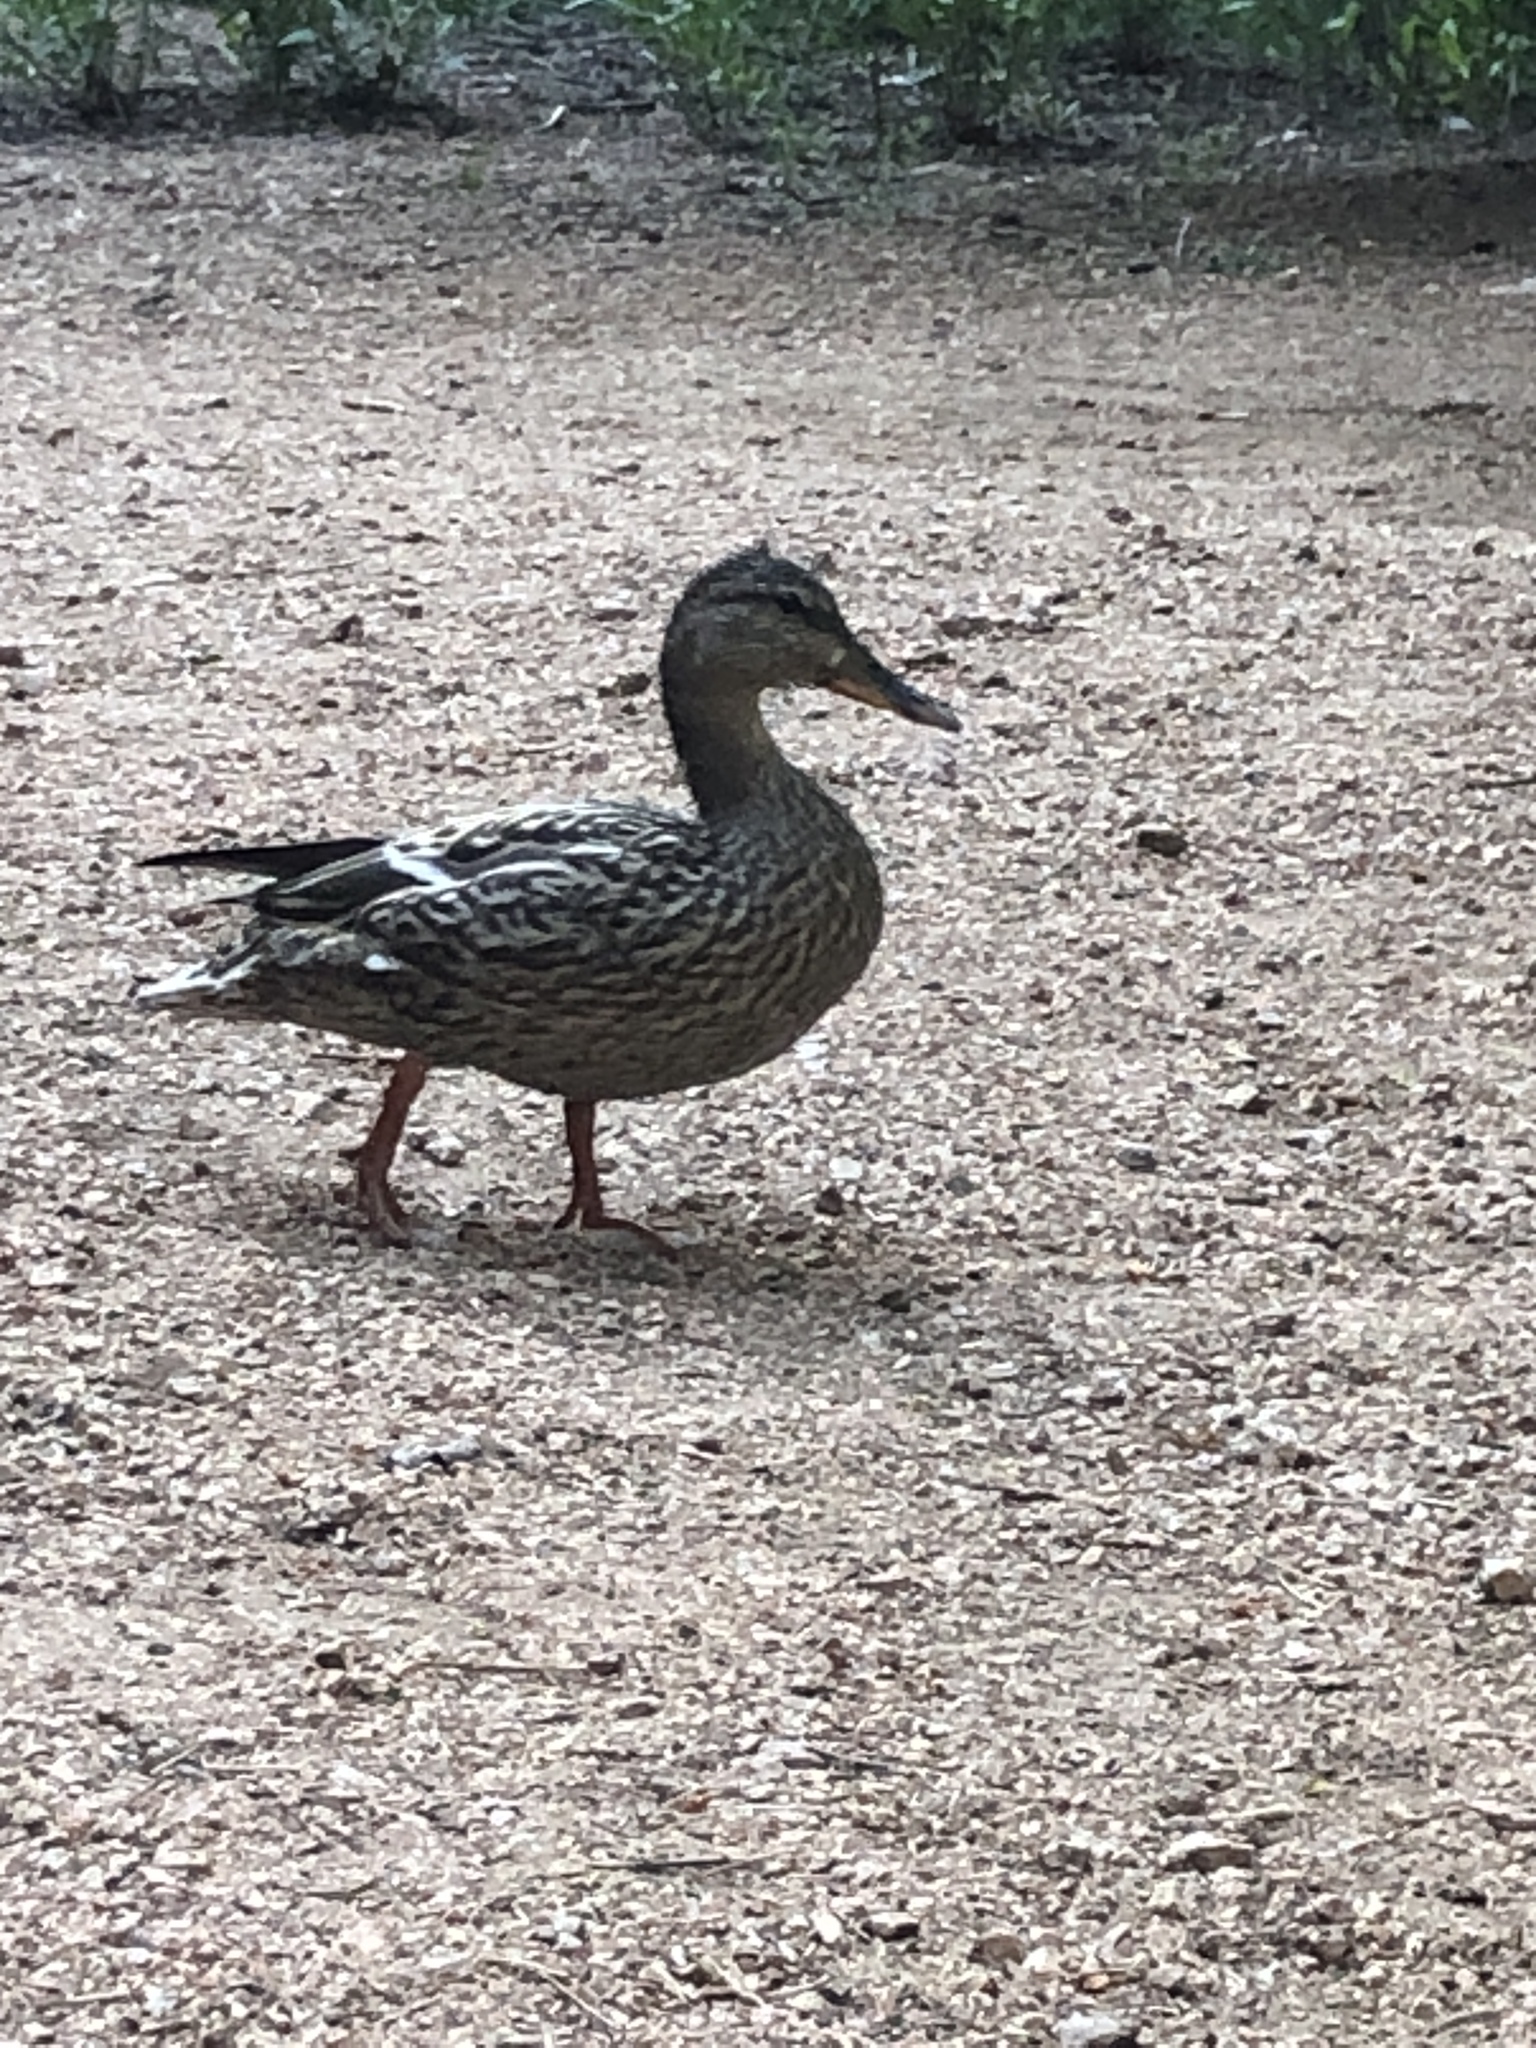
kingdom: Animalia
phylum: Chordata
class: Aves
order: Anseriformes
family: Anatidae
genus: Anas
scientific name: Anas platyrhynchos
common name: Mallard
